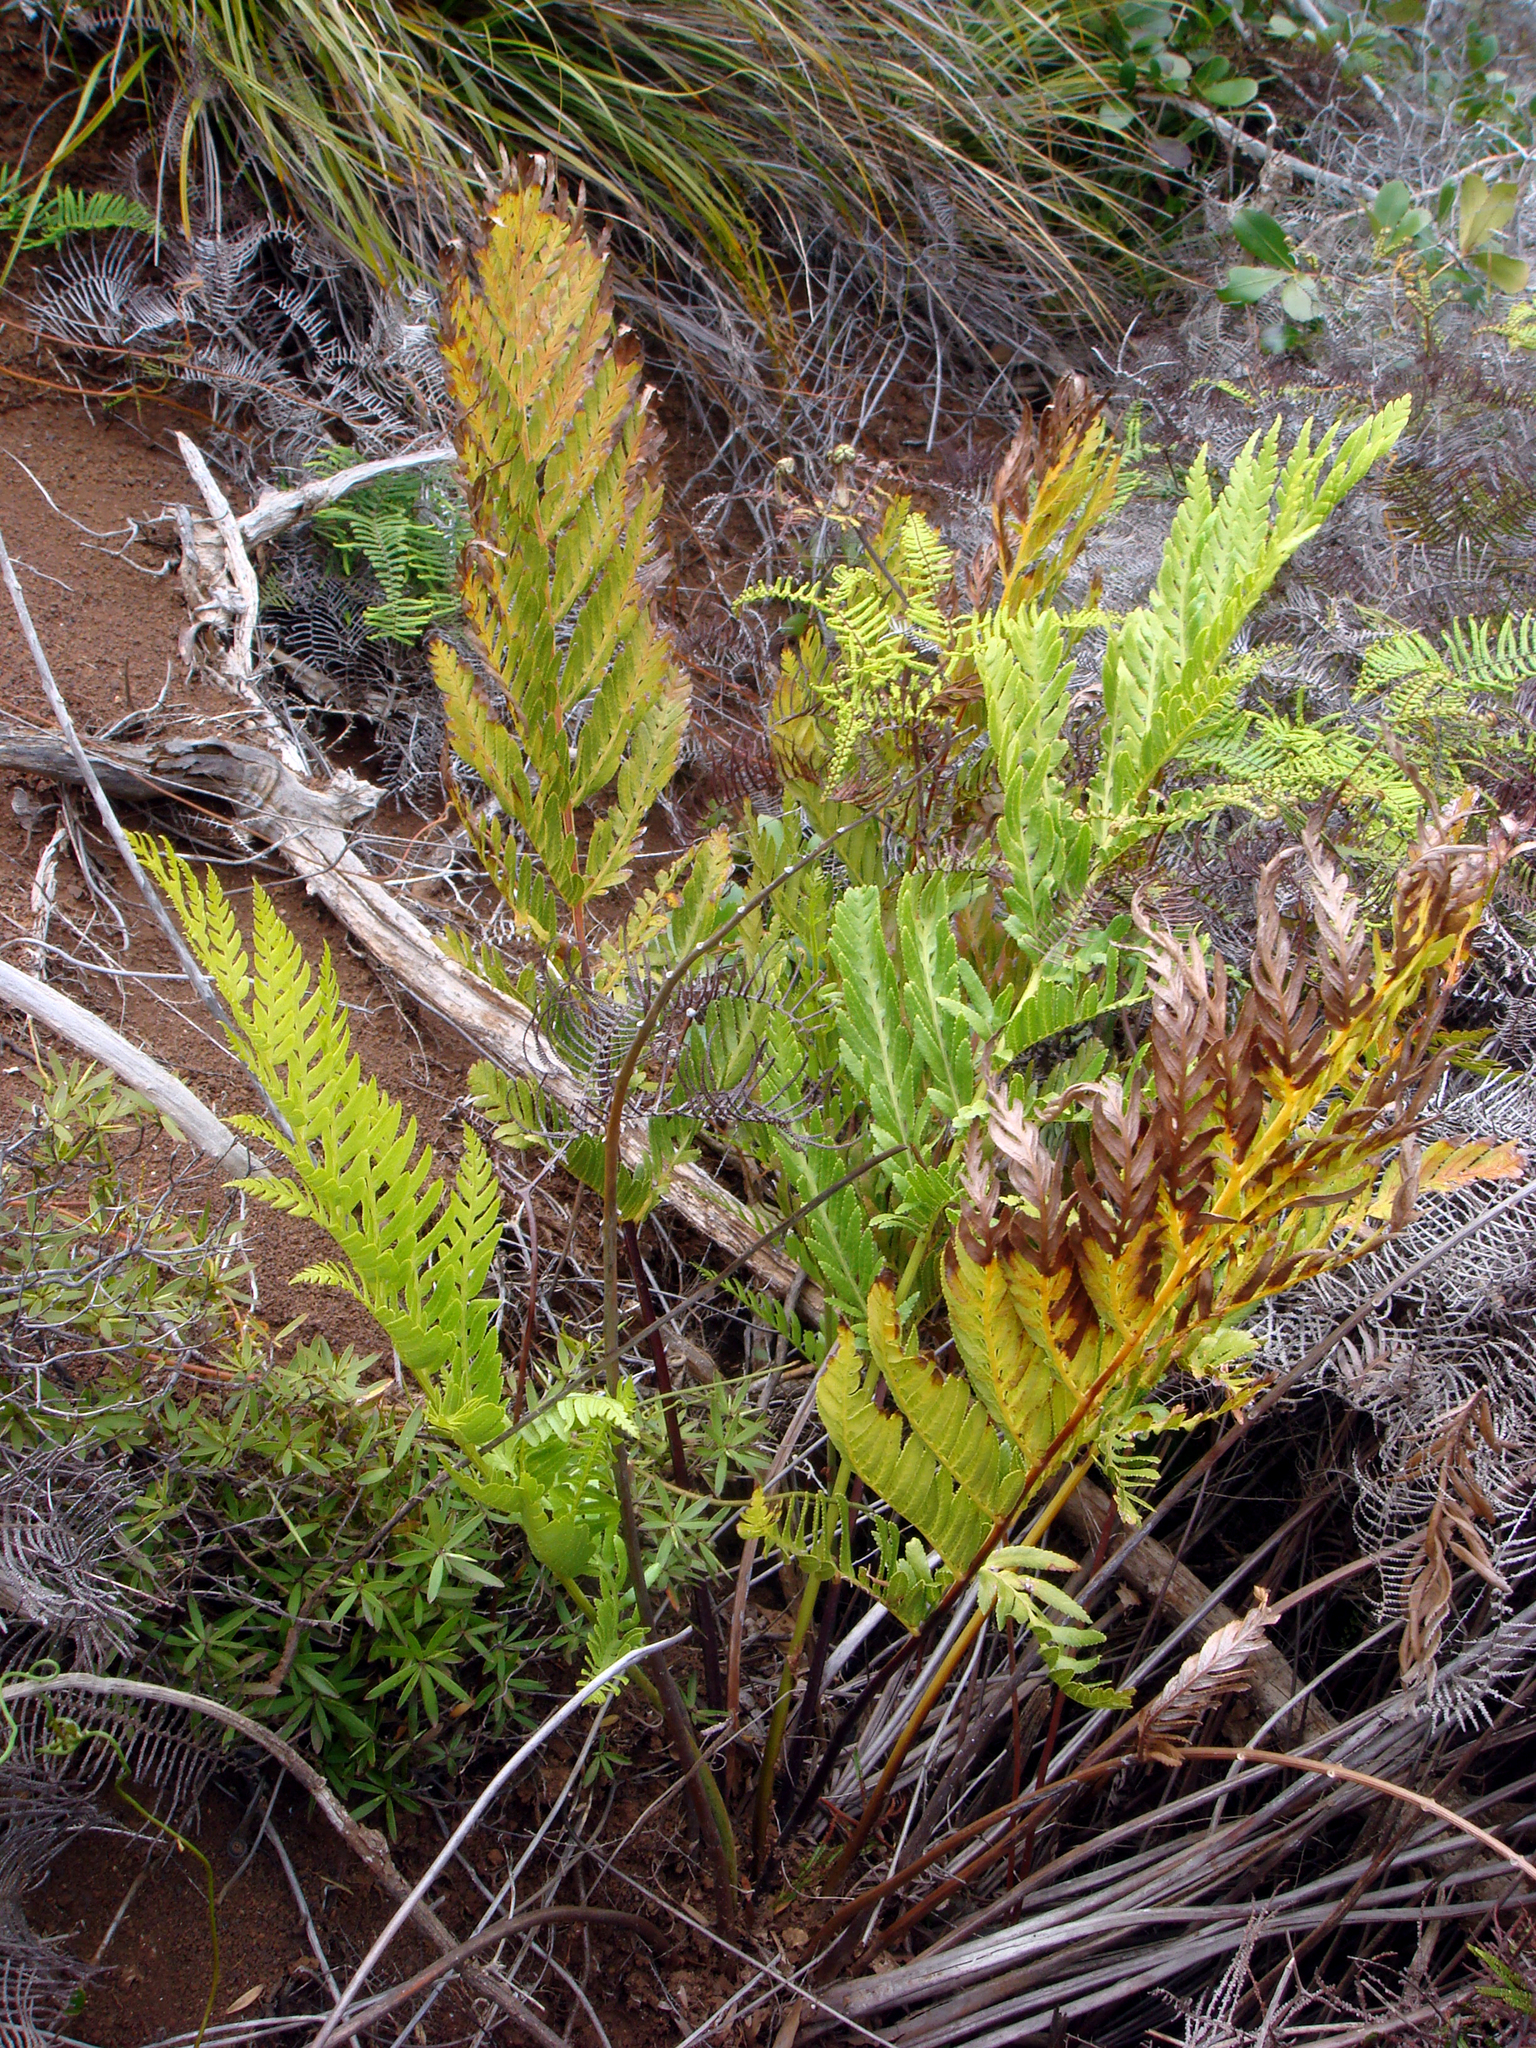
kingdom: Plantae
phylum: Tracheophyta
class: Polypodiopsida
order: Osmundales
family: Osmundaceae
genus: Todea
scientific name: Todea barbara
